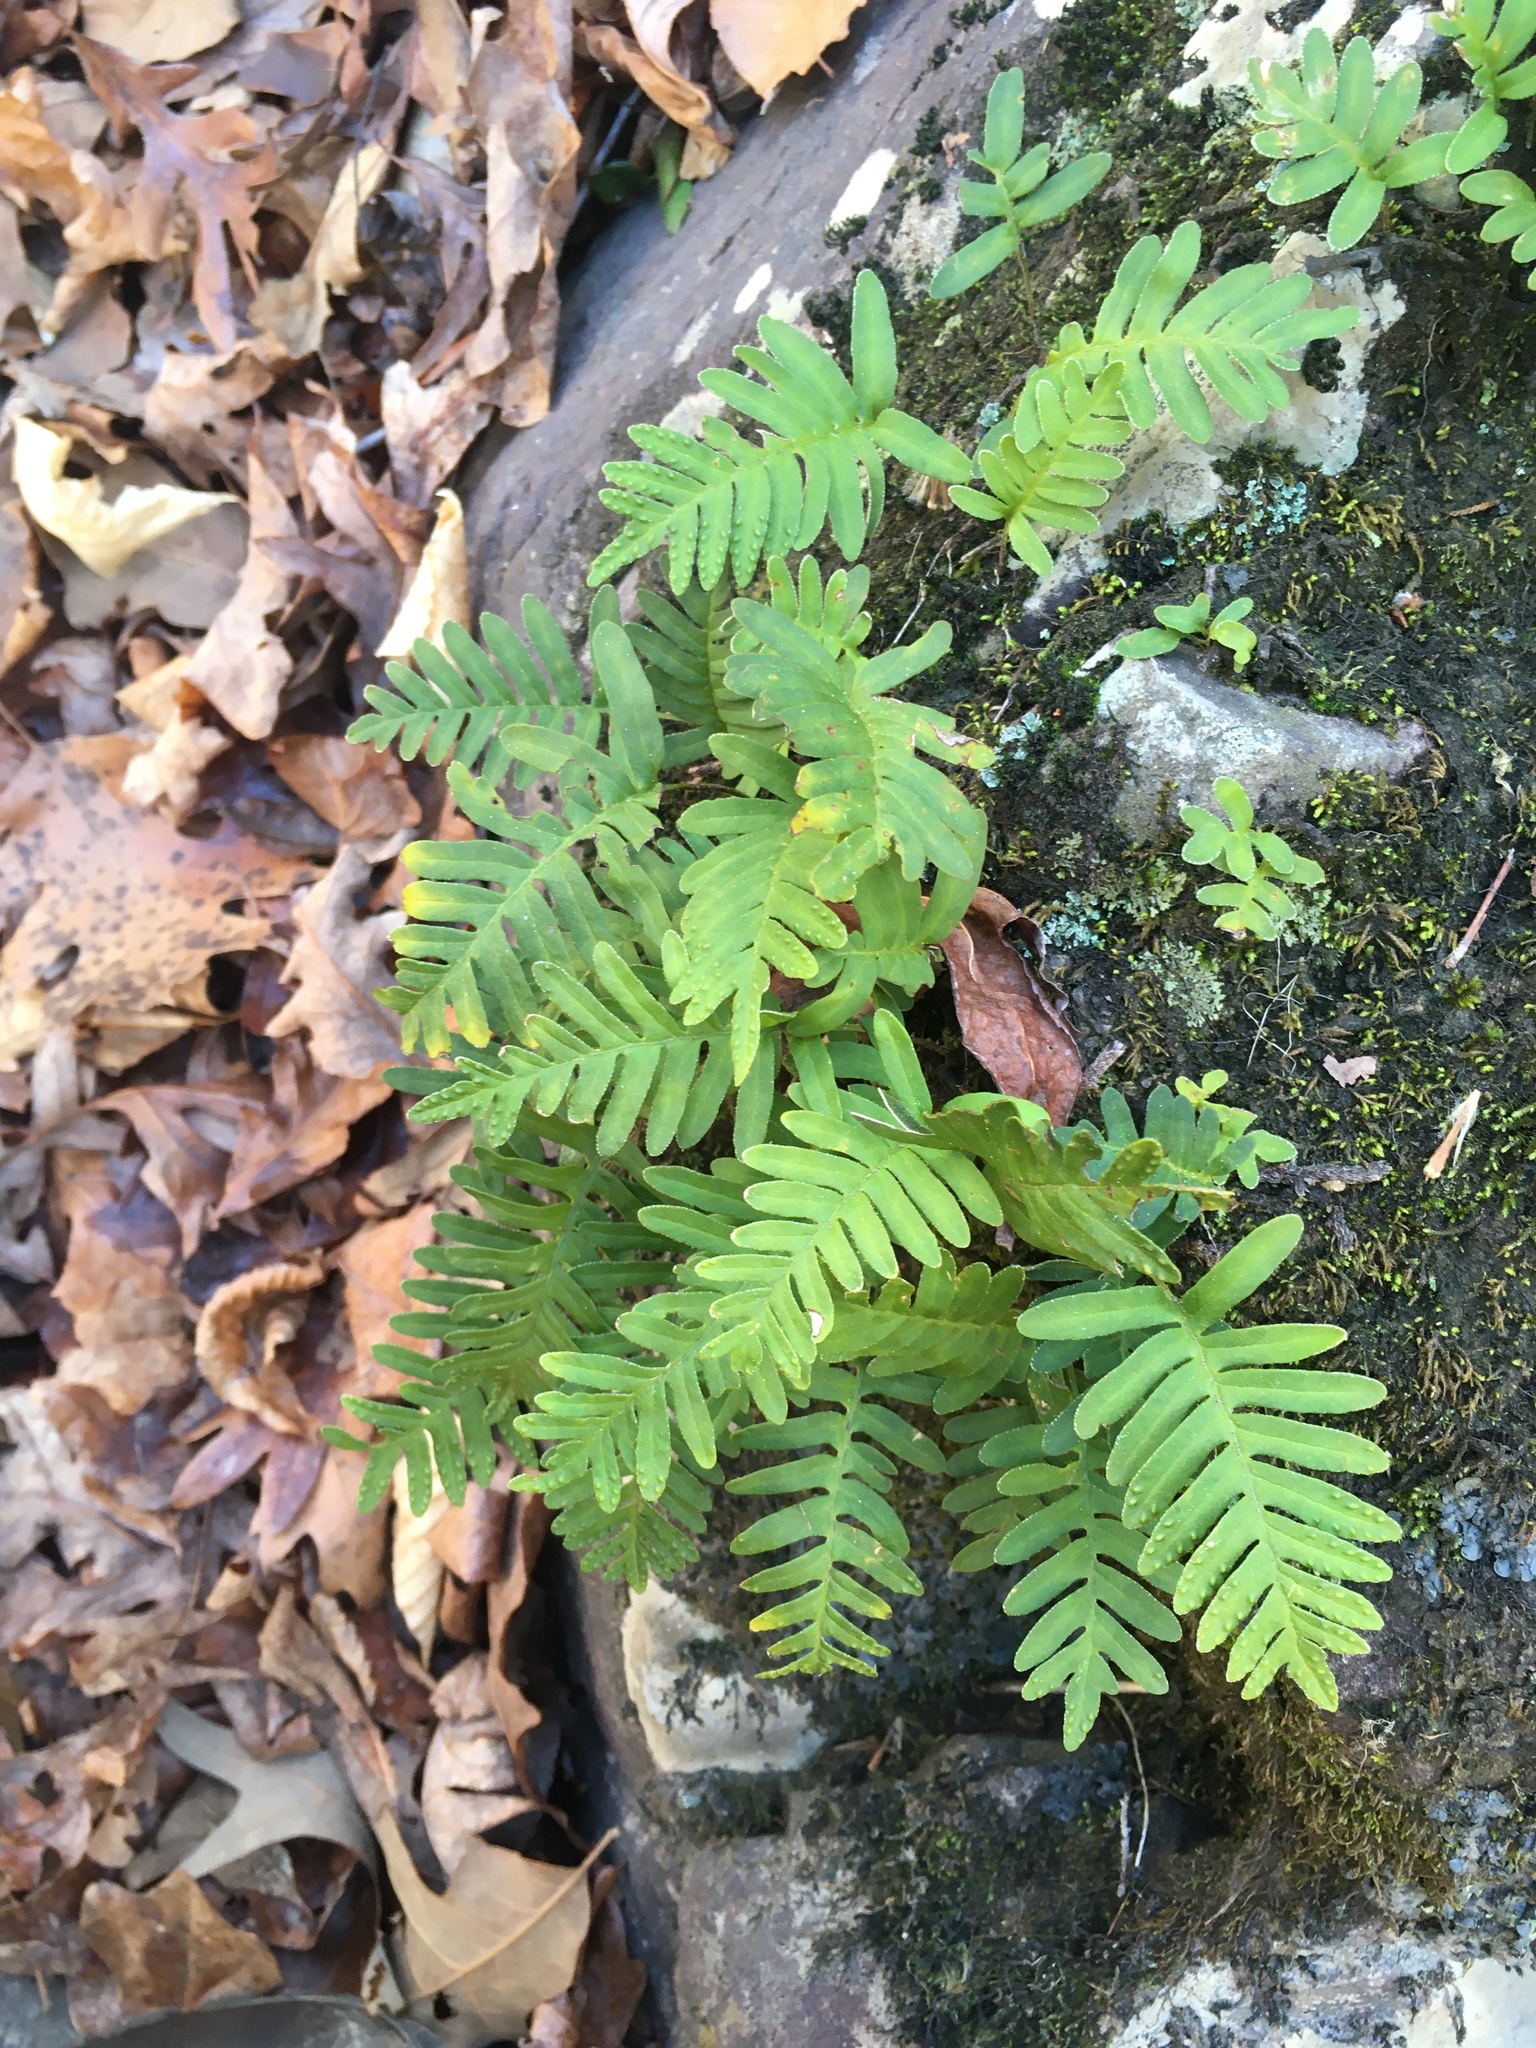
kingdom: Plantae
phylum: Tracheophyta
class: Polypodiopsida
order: Polypodiales
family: Polypodiaceae
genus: Pleopeltis
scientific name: Pleopeltis michauxiana
